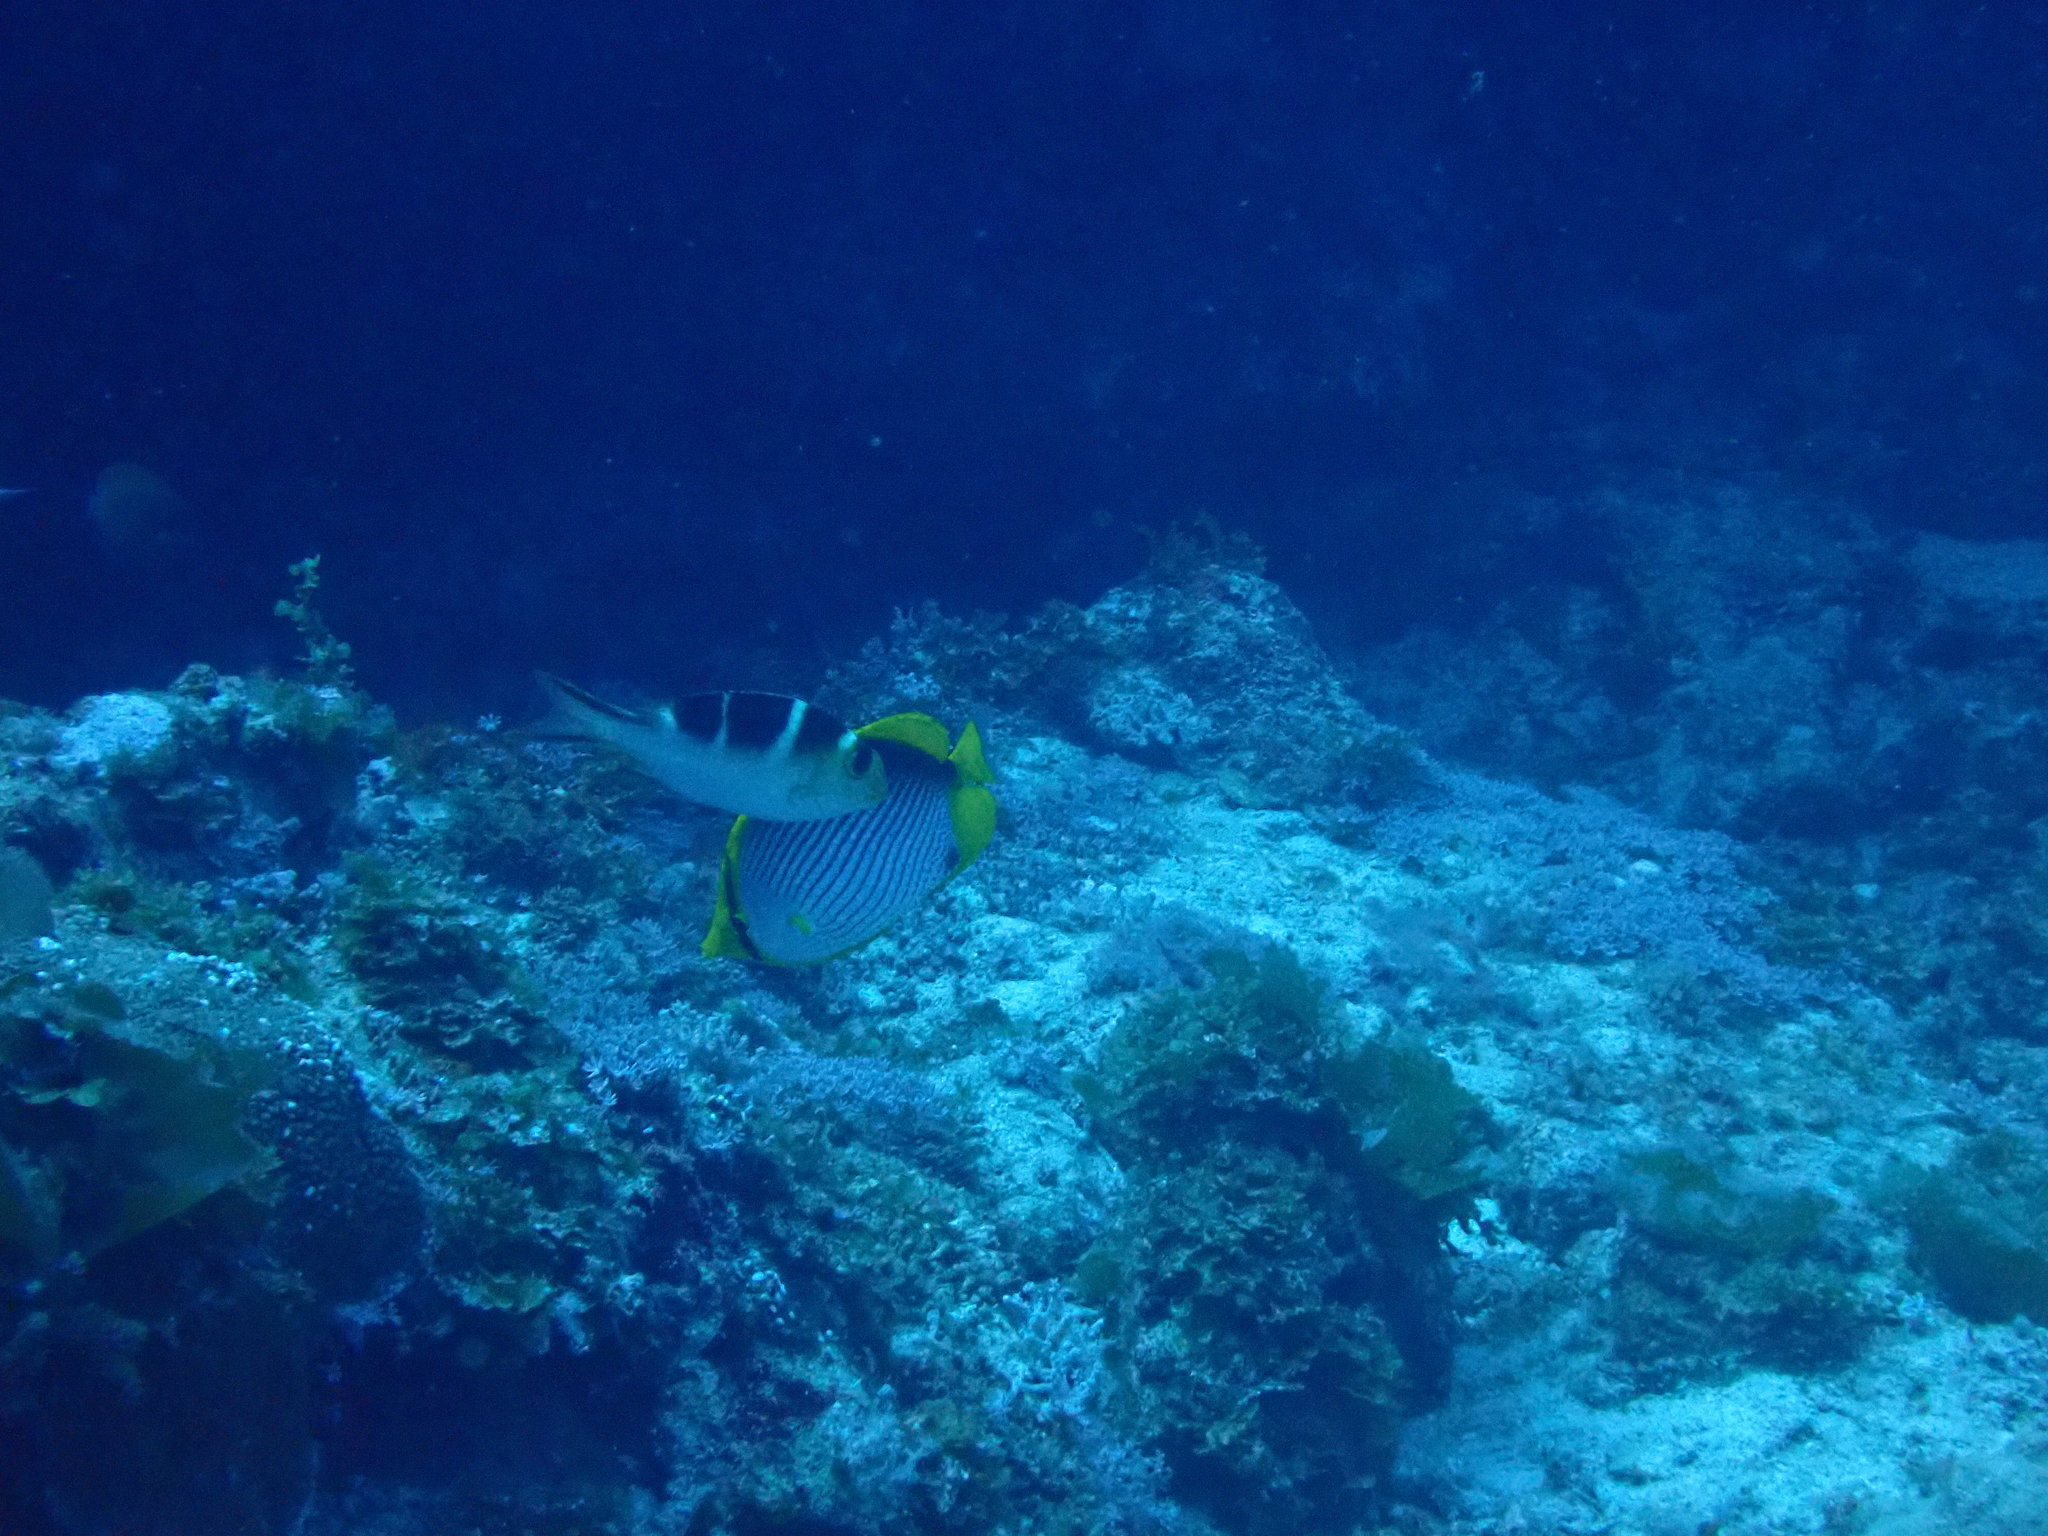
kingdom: Animalia
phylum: Chordata
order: Perciformes
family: Lethrinidae
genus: Monotaxis
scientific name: Monotaxis grandoculis
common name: Bigeye emperor
